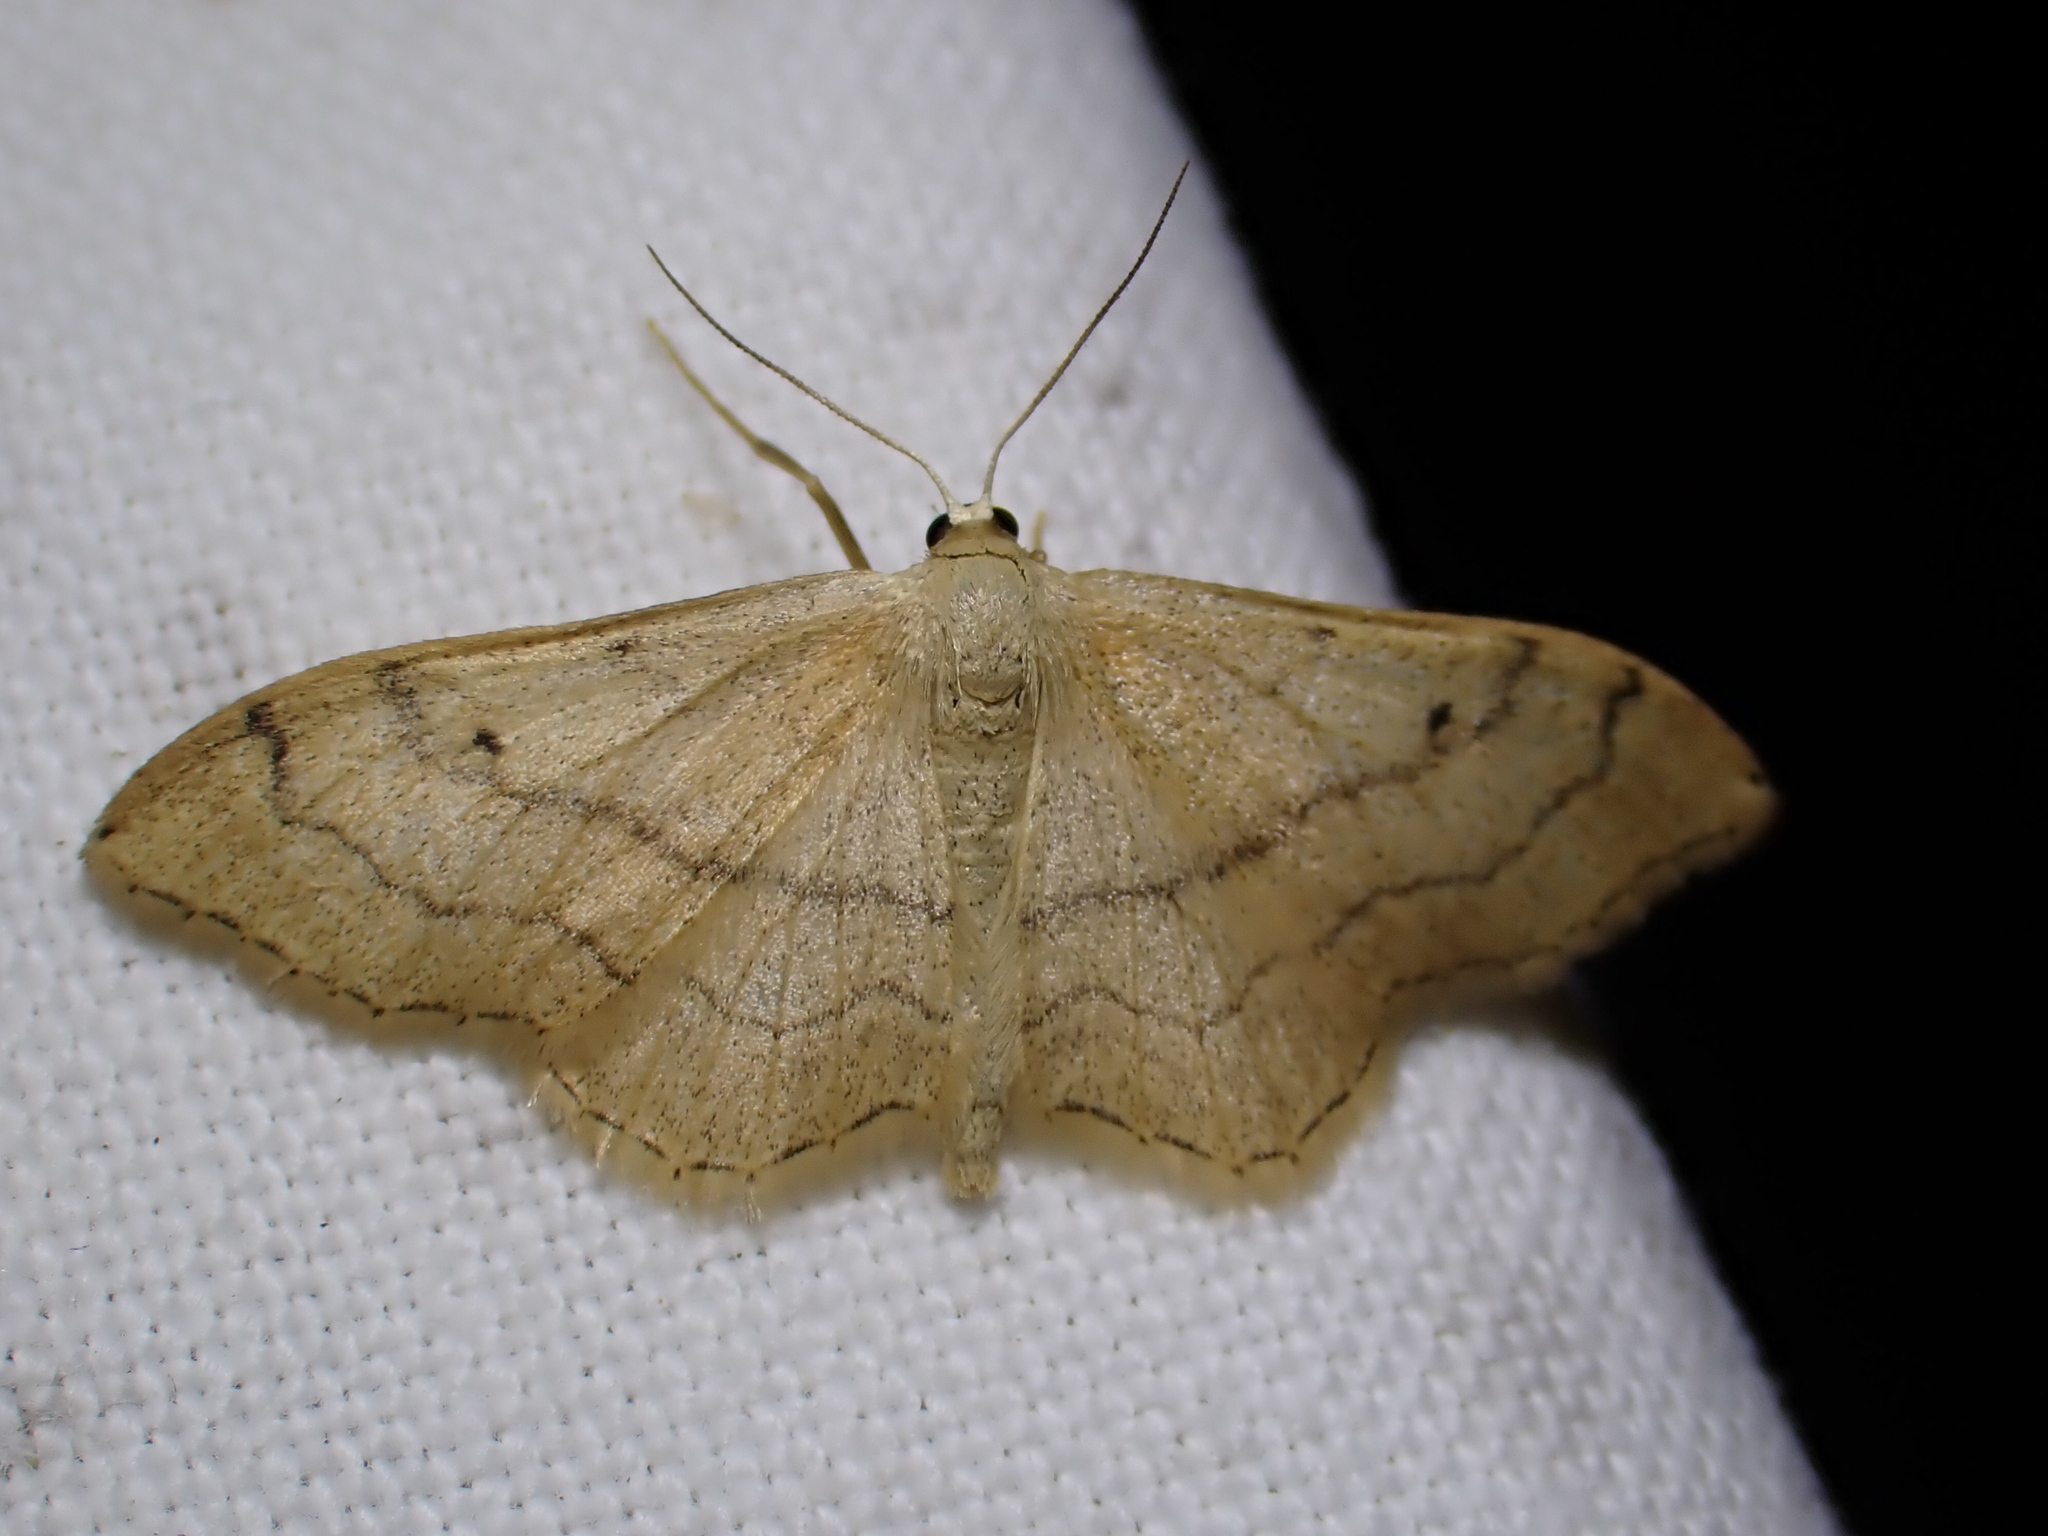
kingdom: Animalia
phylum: Arthropoda
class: Insecta
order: Lepidoptera
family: Geometridae
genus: Idaea
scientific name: Idaea aversata
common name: Riband wave
